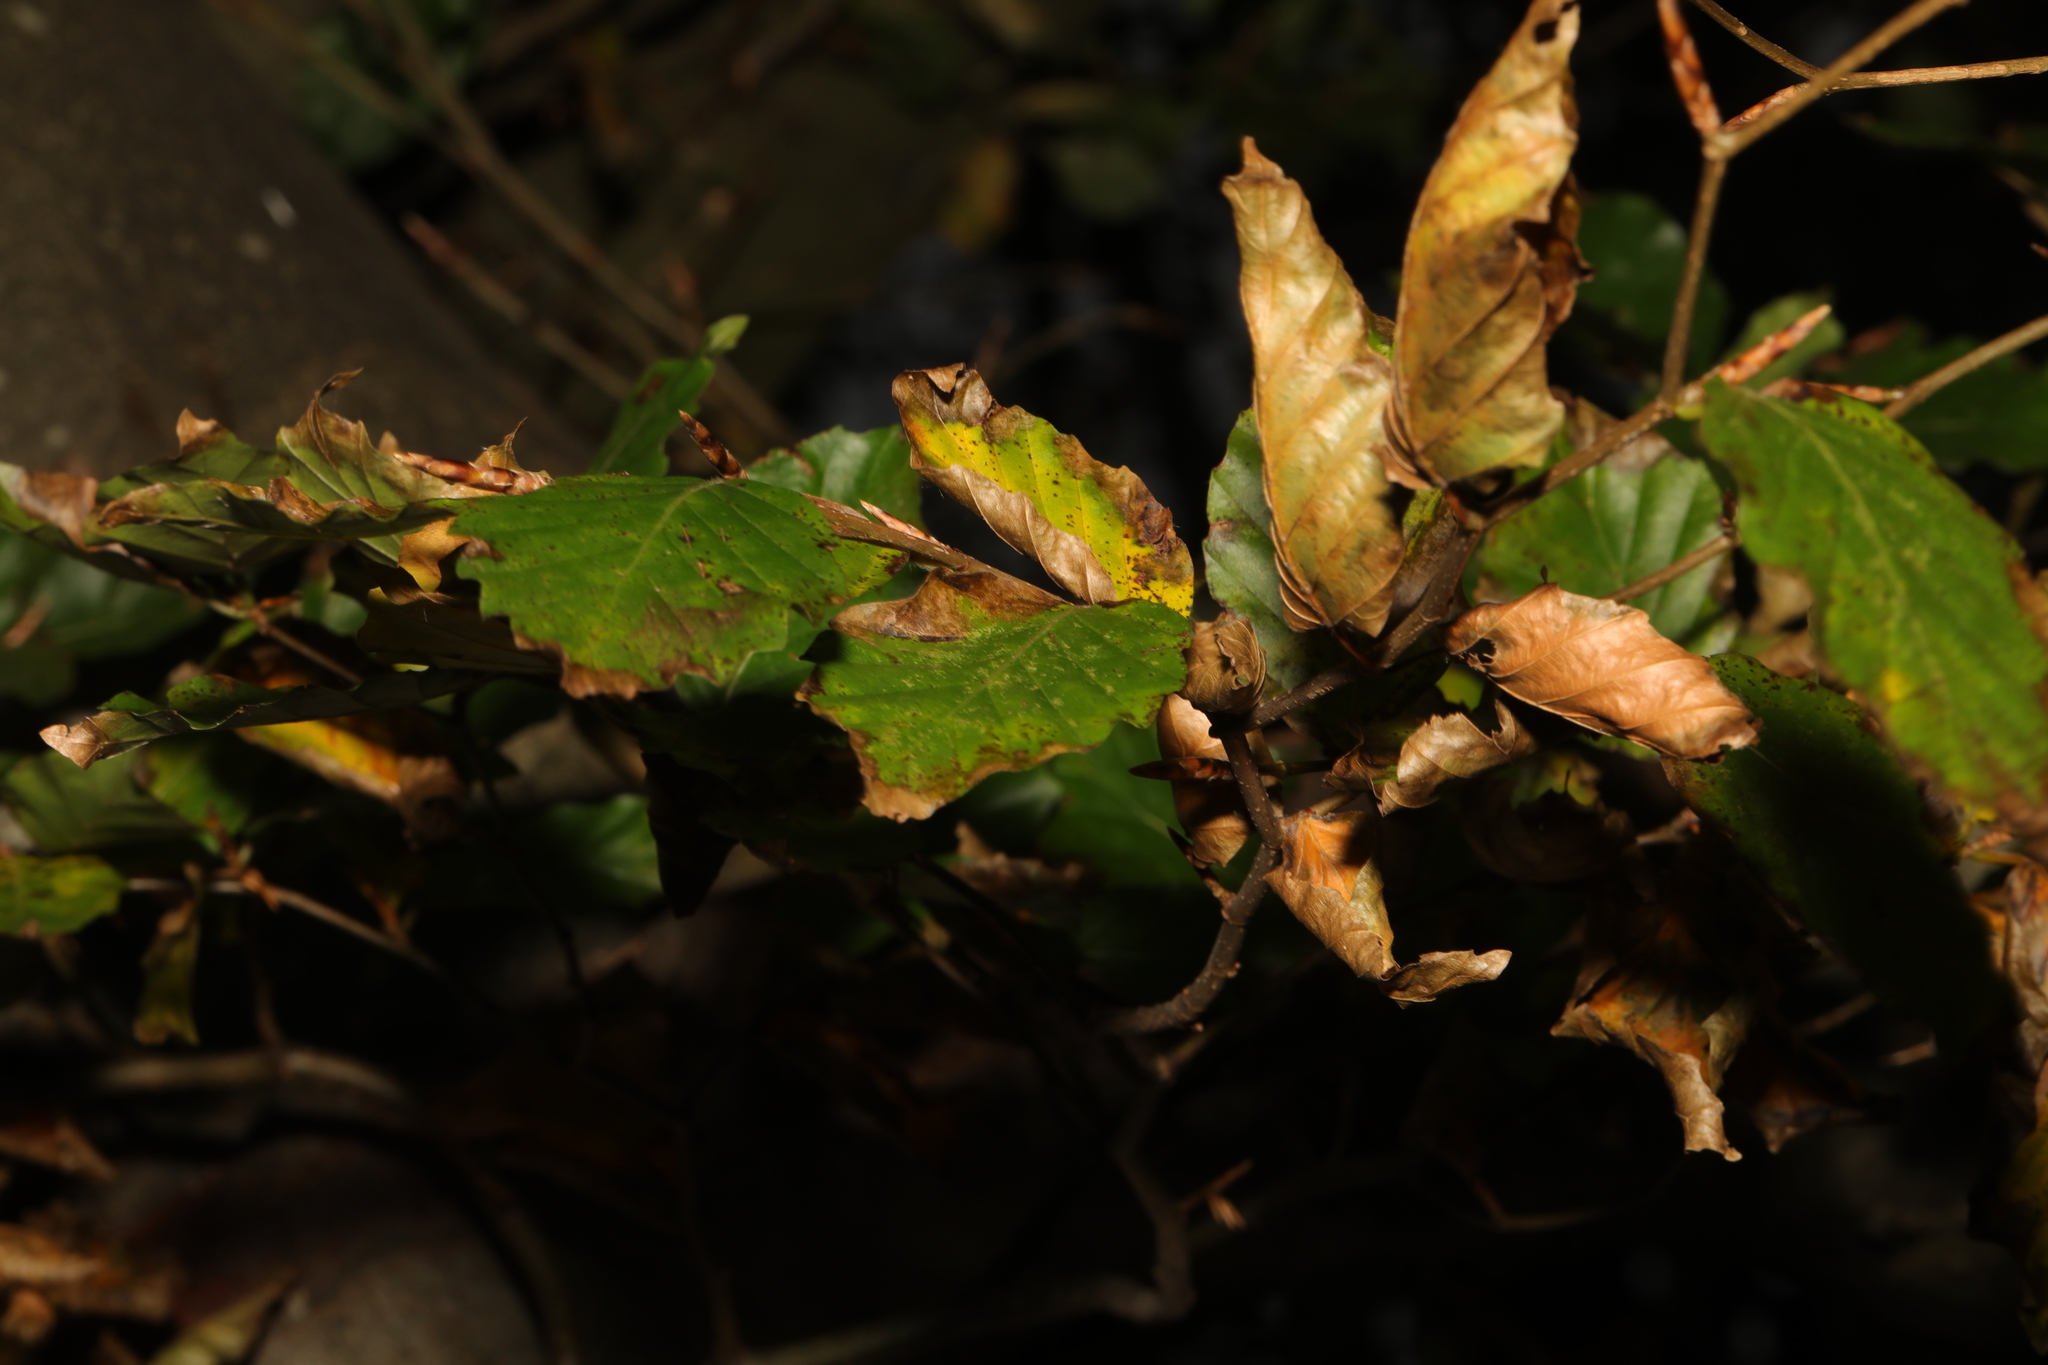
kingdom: Plantae
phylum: Tracheophyta
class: Magnoliopsida
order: Fagales
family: Fagaceae
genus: Fagus
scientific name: Fagus sylvatica
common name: Beech
